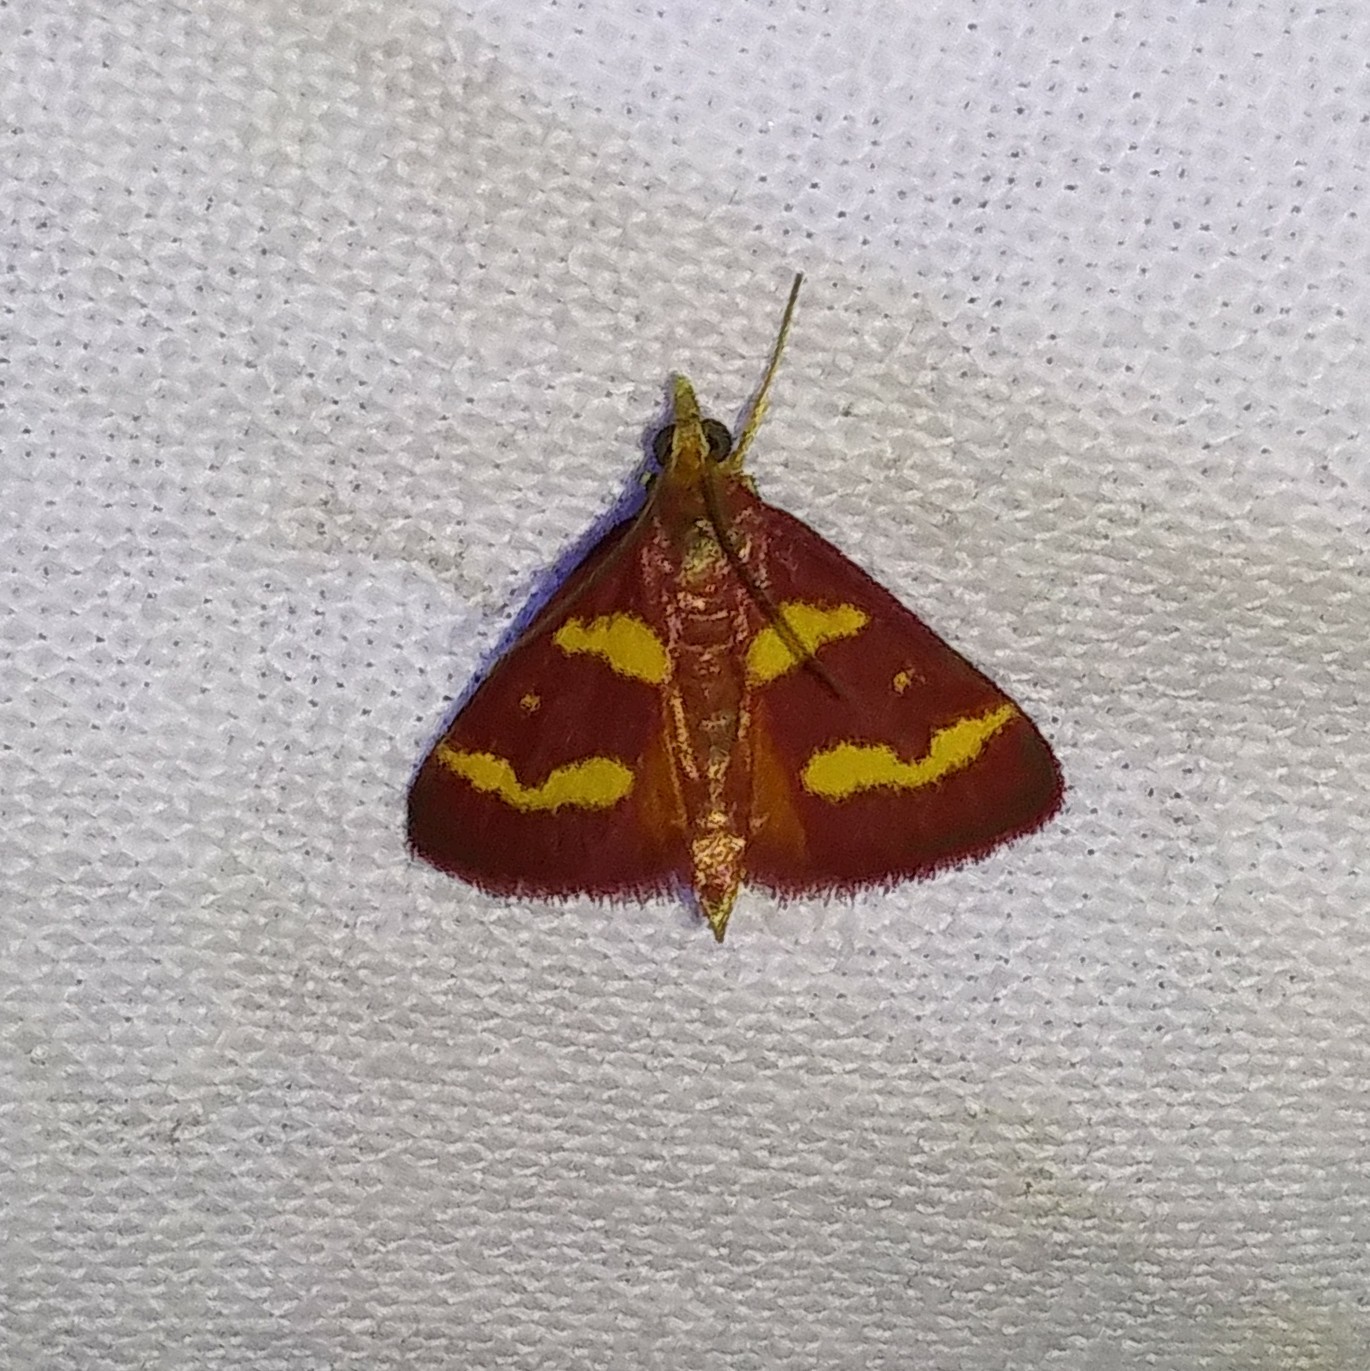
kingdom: Animalia
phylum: Arthropoda
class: Insecta
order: Lepidoptera
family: Crambidae
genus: Pyrausta
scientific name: Pyrausta tyralis
